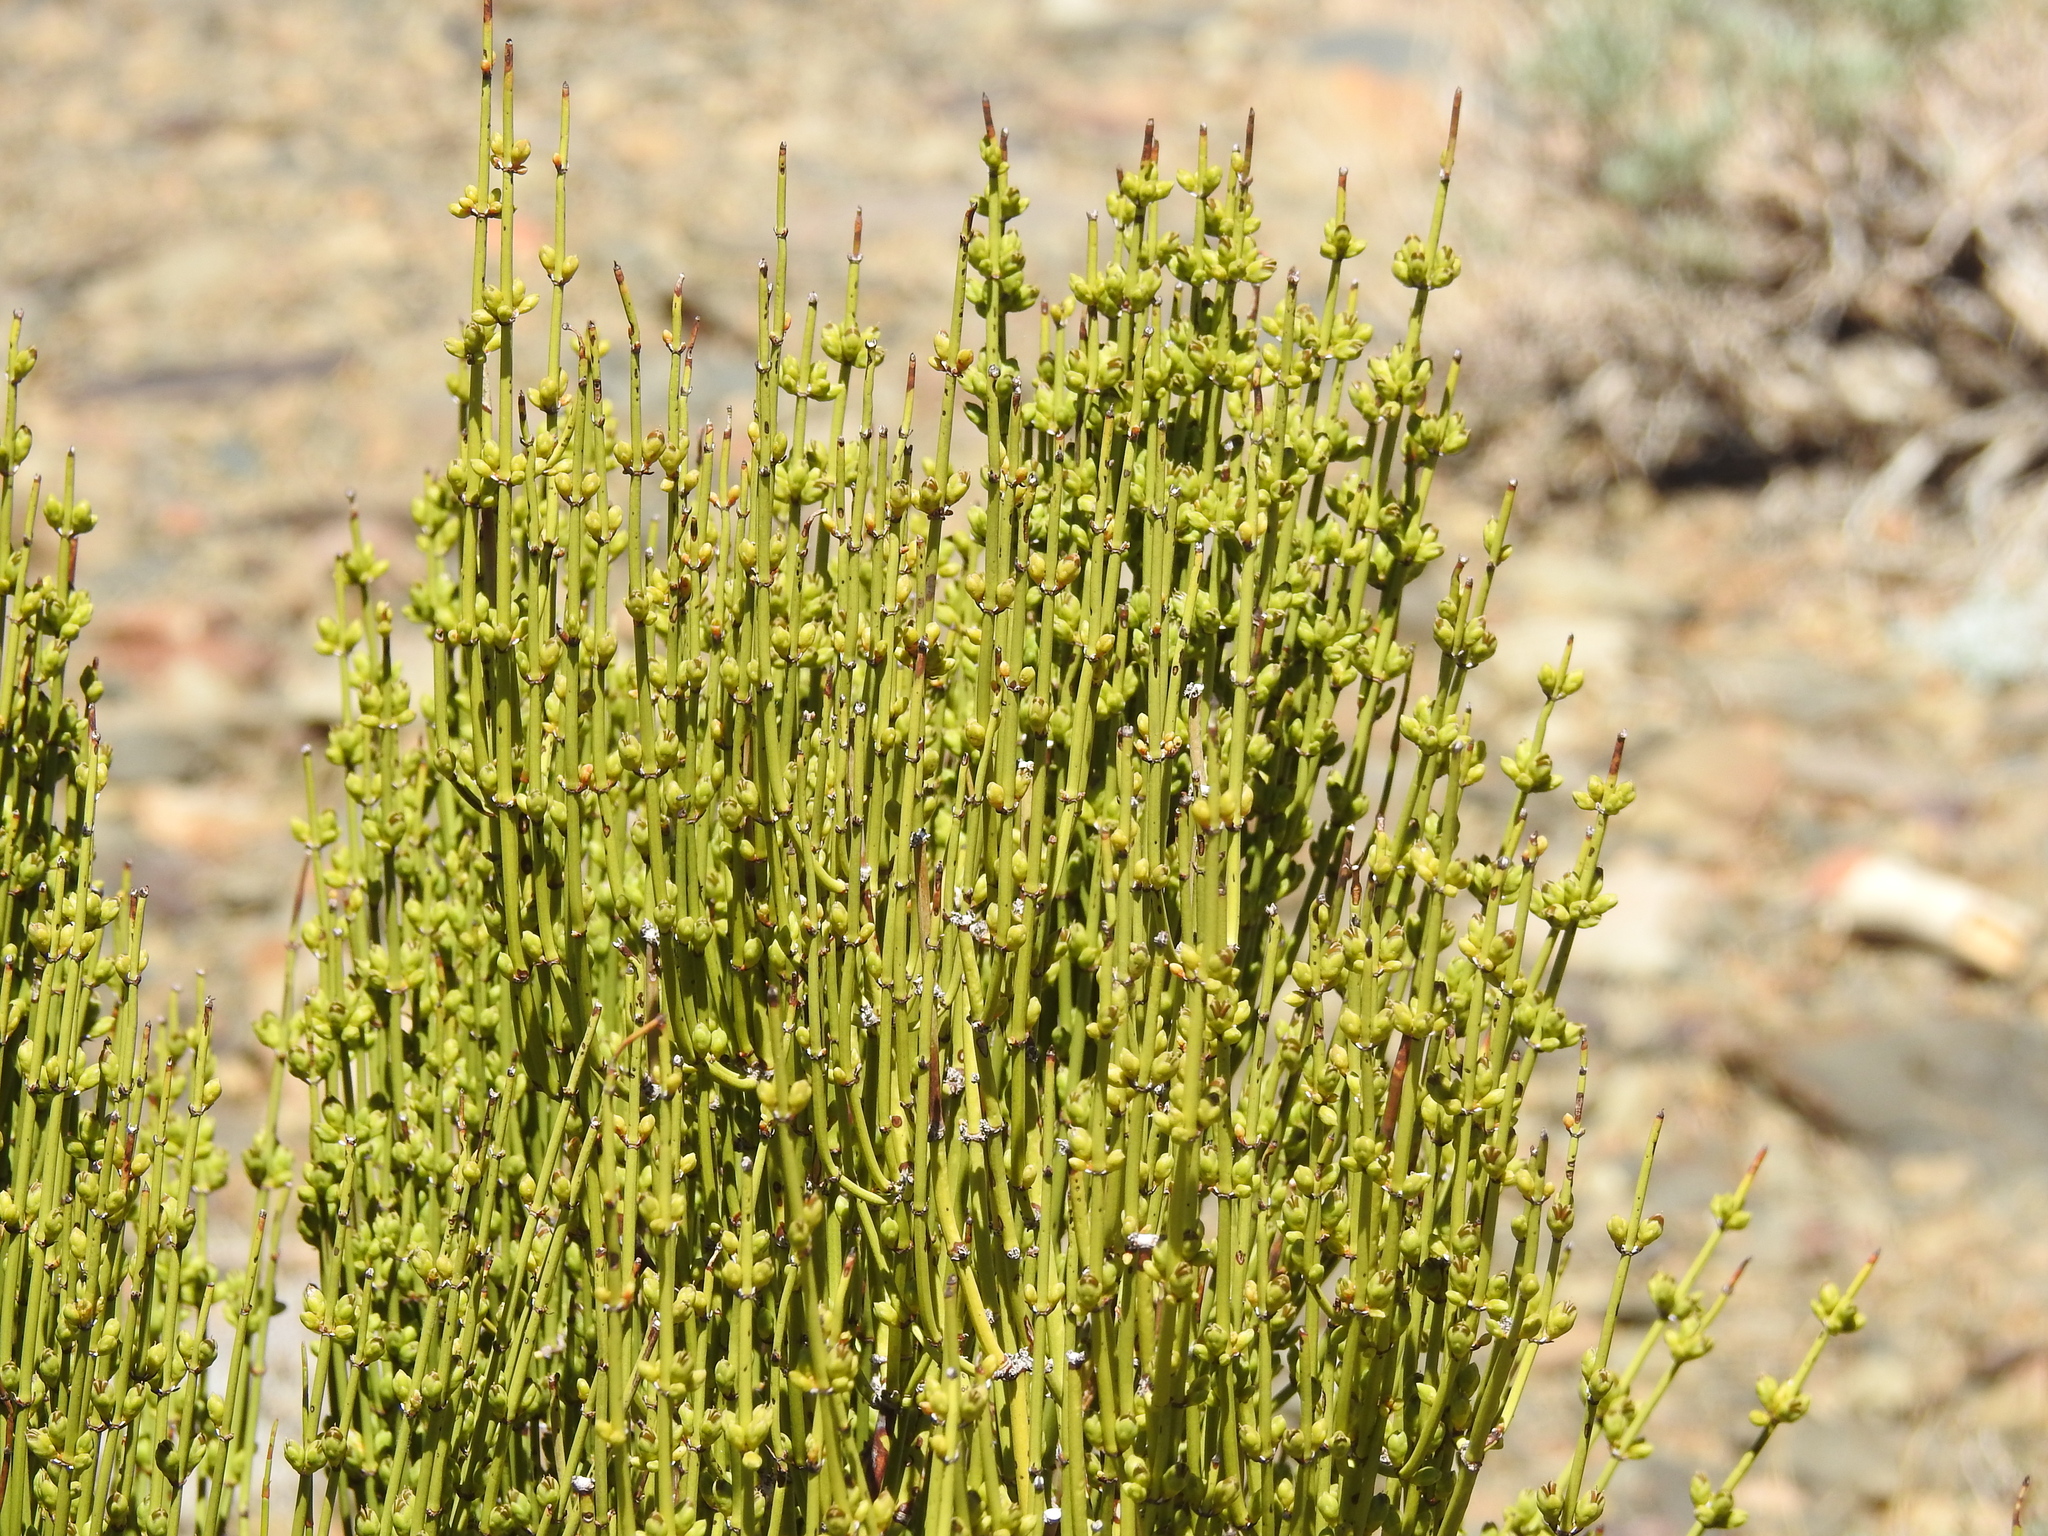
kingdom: Plantae
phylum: Tracheophyta
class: Gnetopsida
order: Ephedrales
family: Ephedraceae
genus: Ephedra
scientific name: Ephedra viridis
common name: Green ephedra
